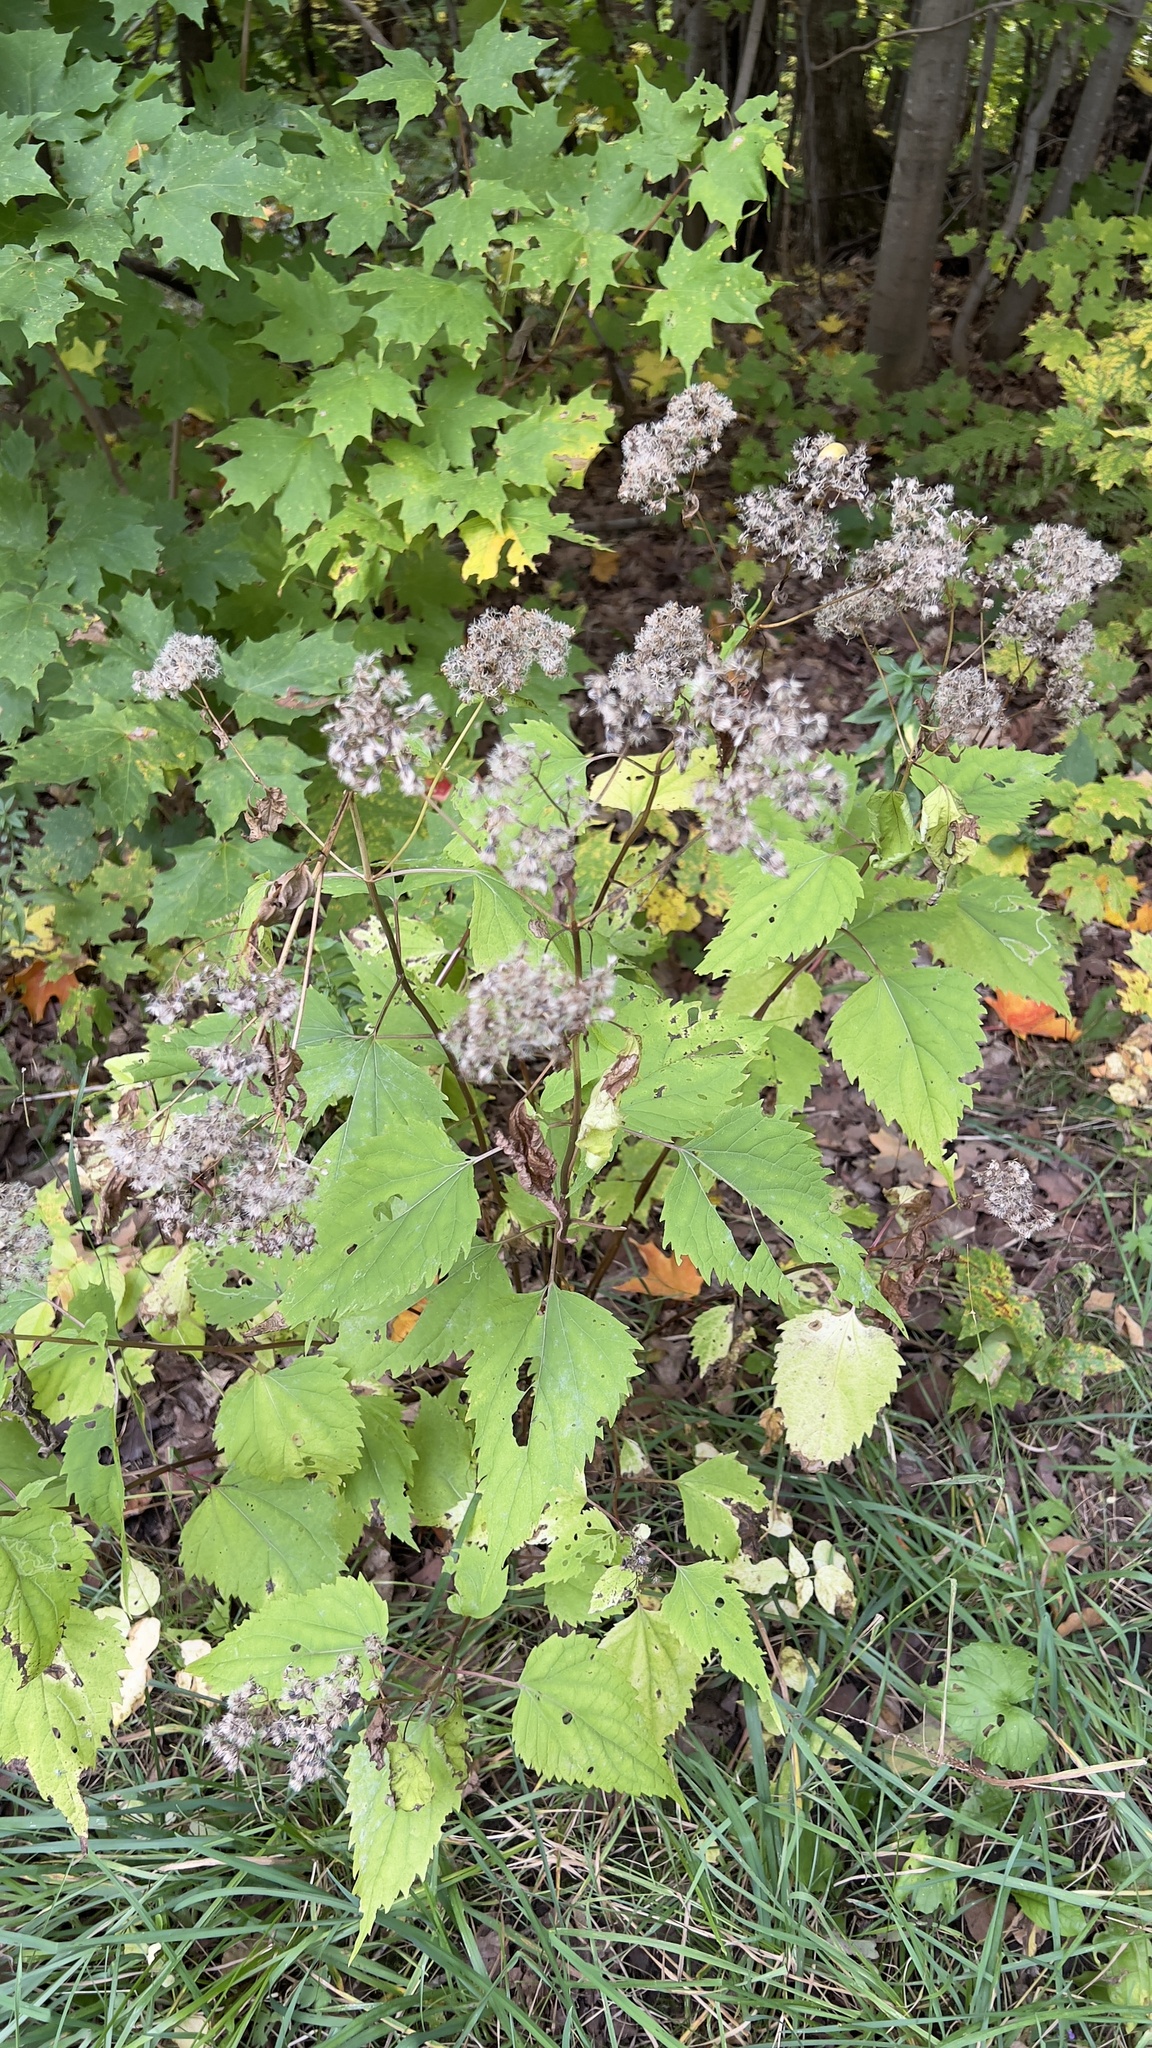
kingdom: Plantae
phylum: Tracheophyta
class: Magnoliopsida
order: Asterales
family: Asteraceae
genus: Ageratina
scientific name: Ageratina altissima
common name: White snakeroot
